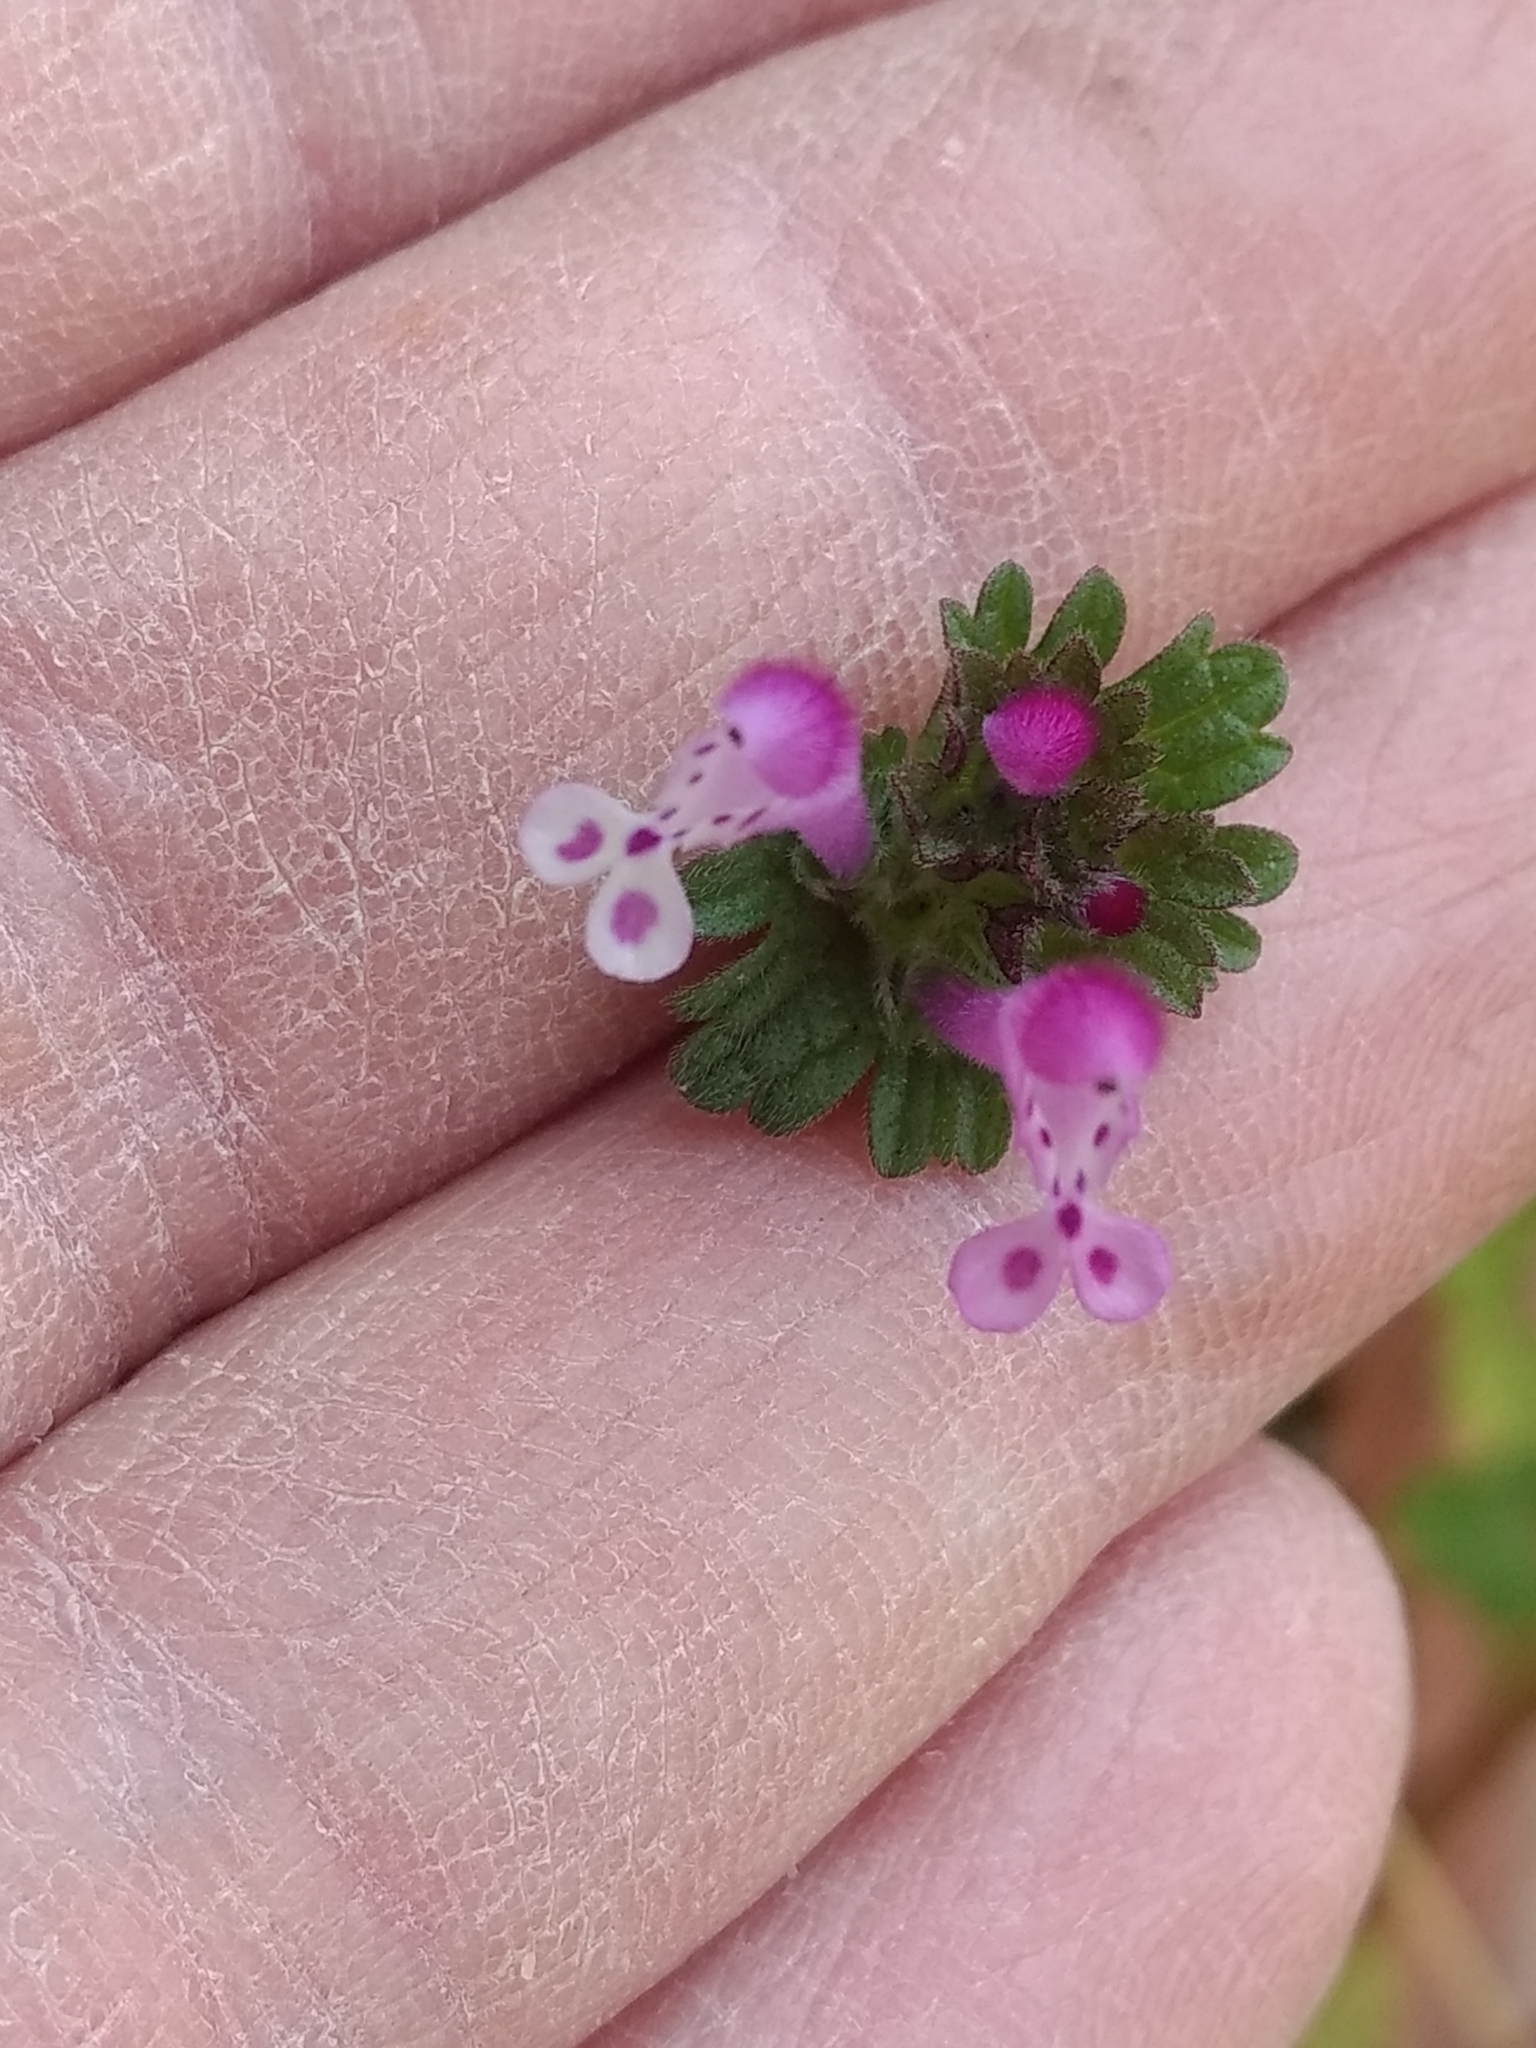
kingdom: Plantae
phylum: Tracheophyta
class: Magnoliopsida
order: Lamiales
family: Lamiaceae
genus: Lamium
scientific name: Lamium amplexicaule
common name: Henbit dead-nettle
